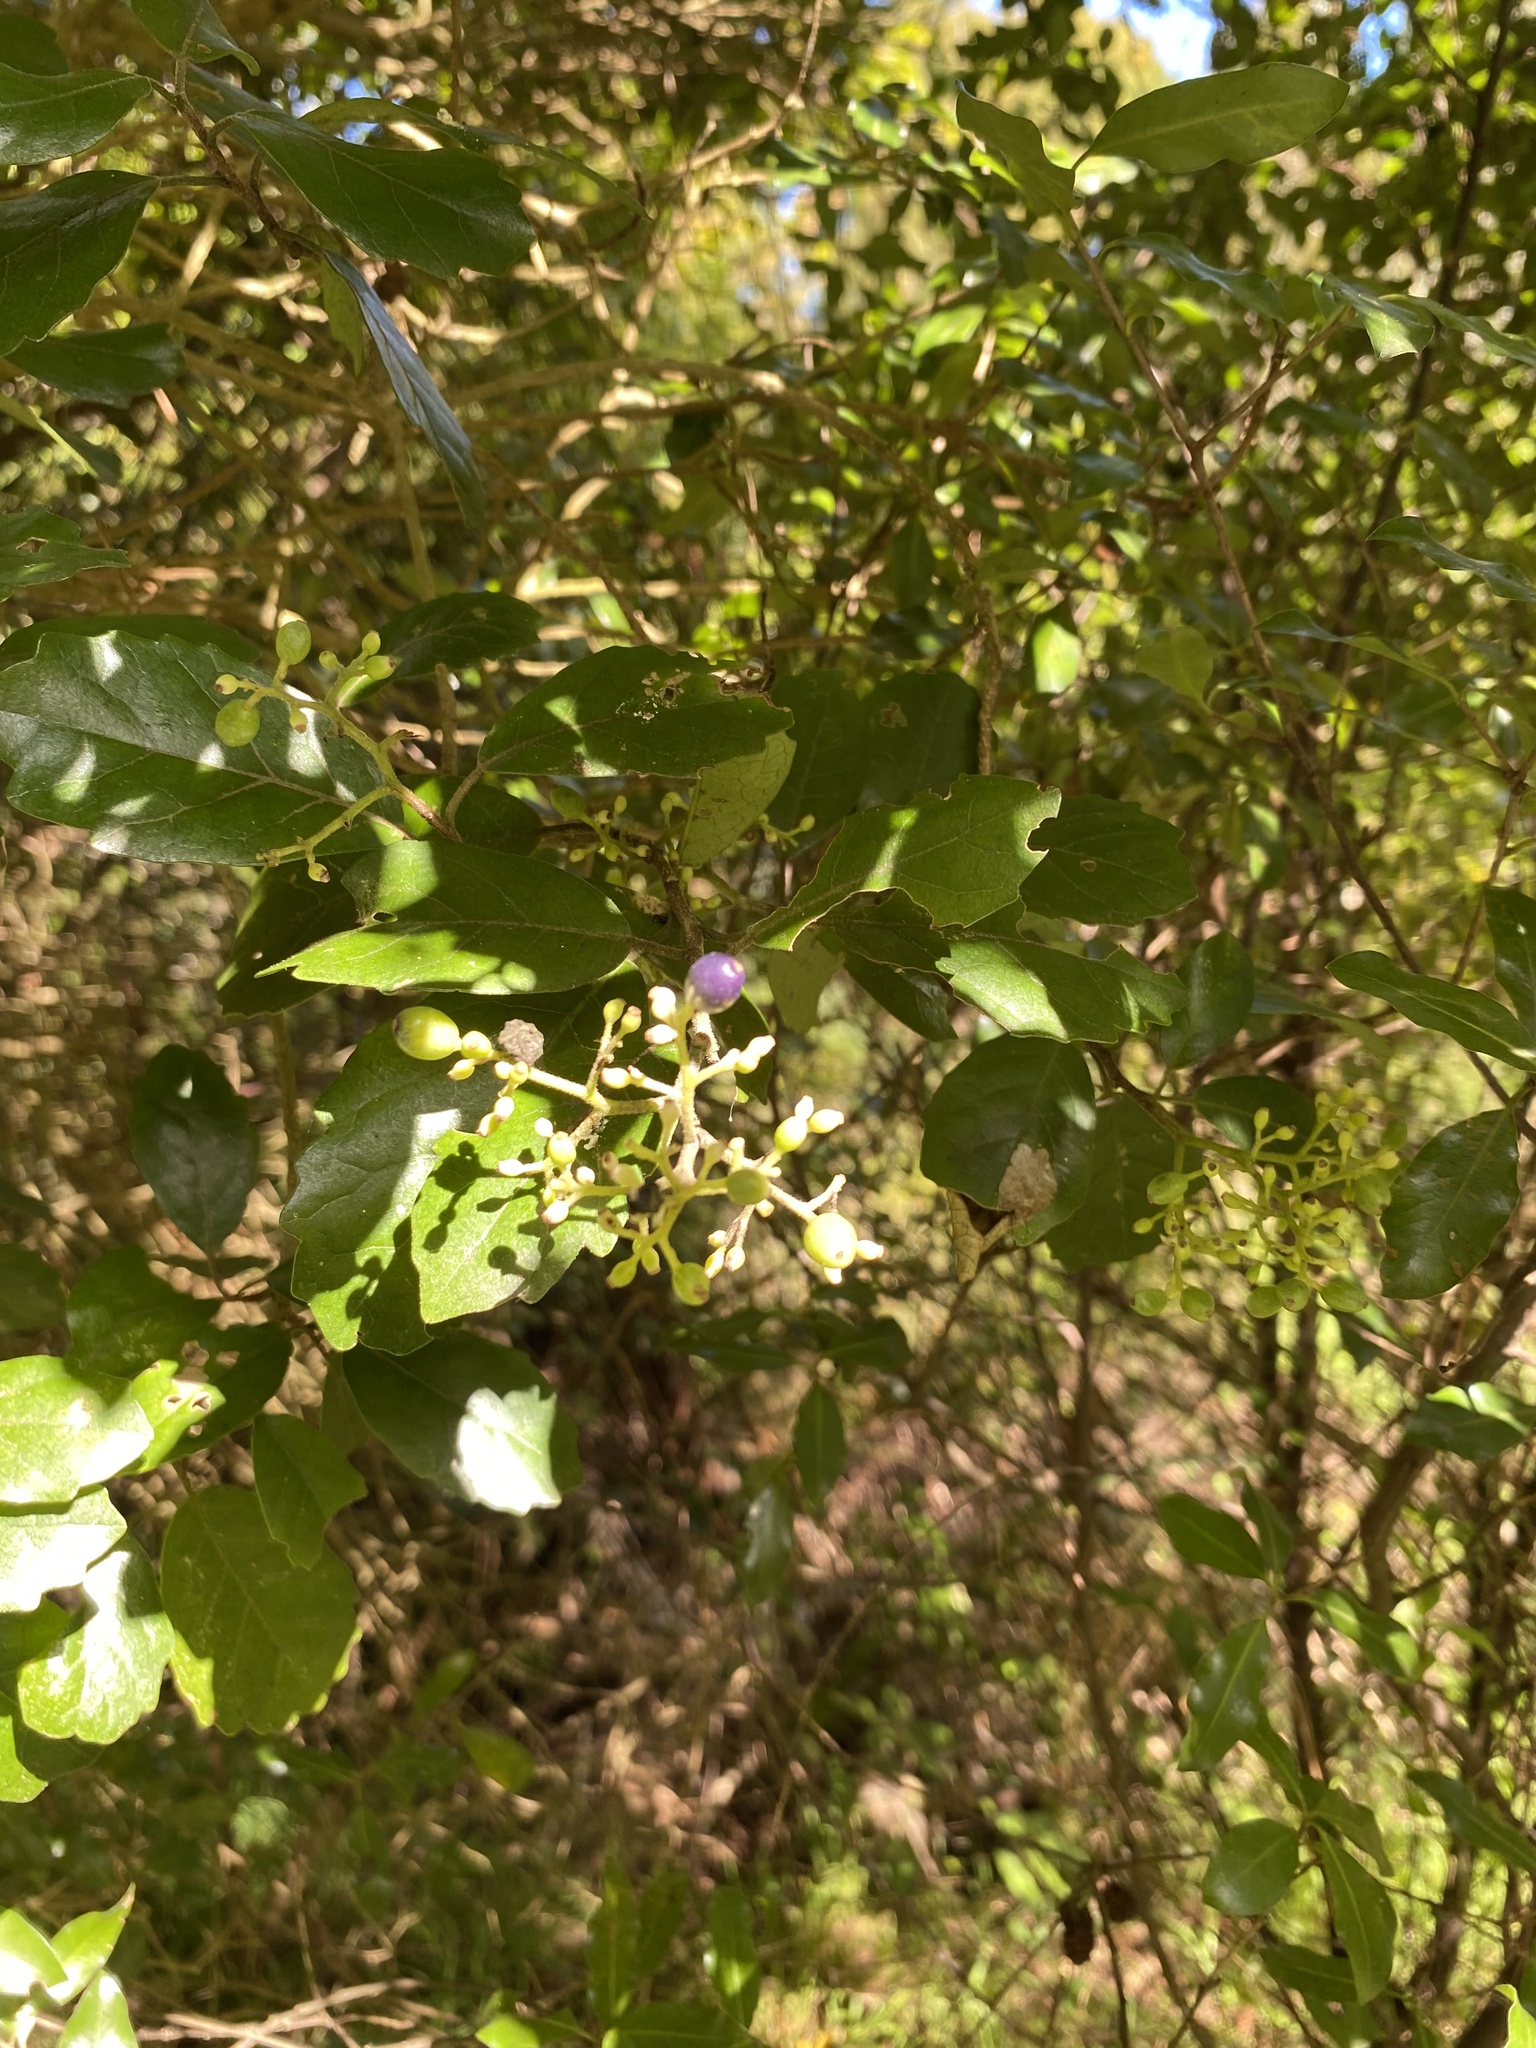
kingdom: Plantae
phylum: Tracheophyta
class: Magnoliopsida
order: Apiales
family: Pennantiaceae
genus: Pennantia
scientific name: Pennantia corymbosa
